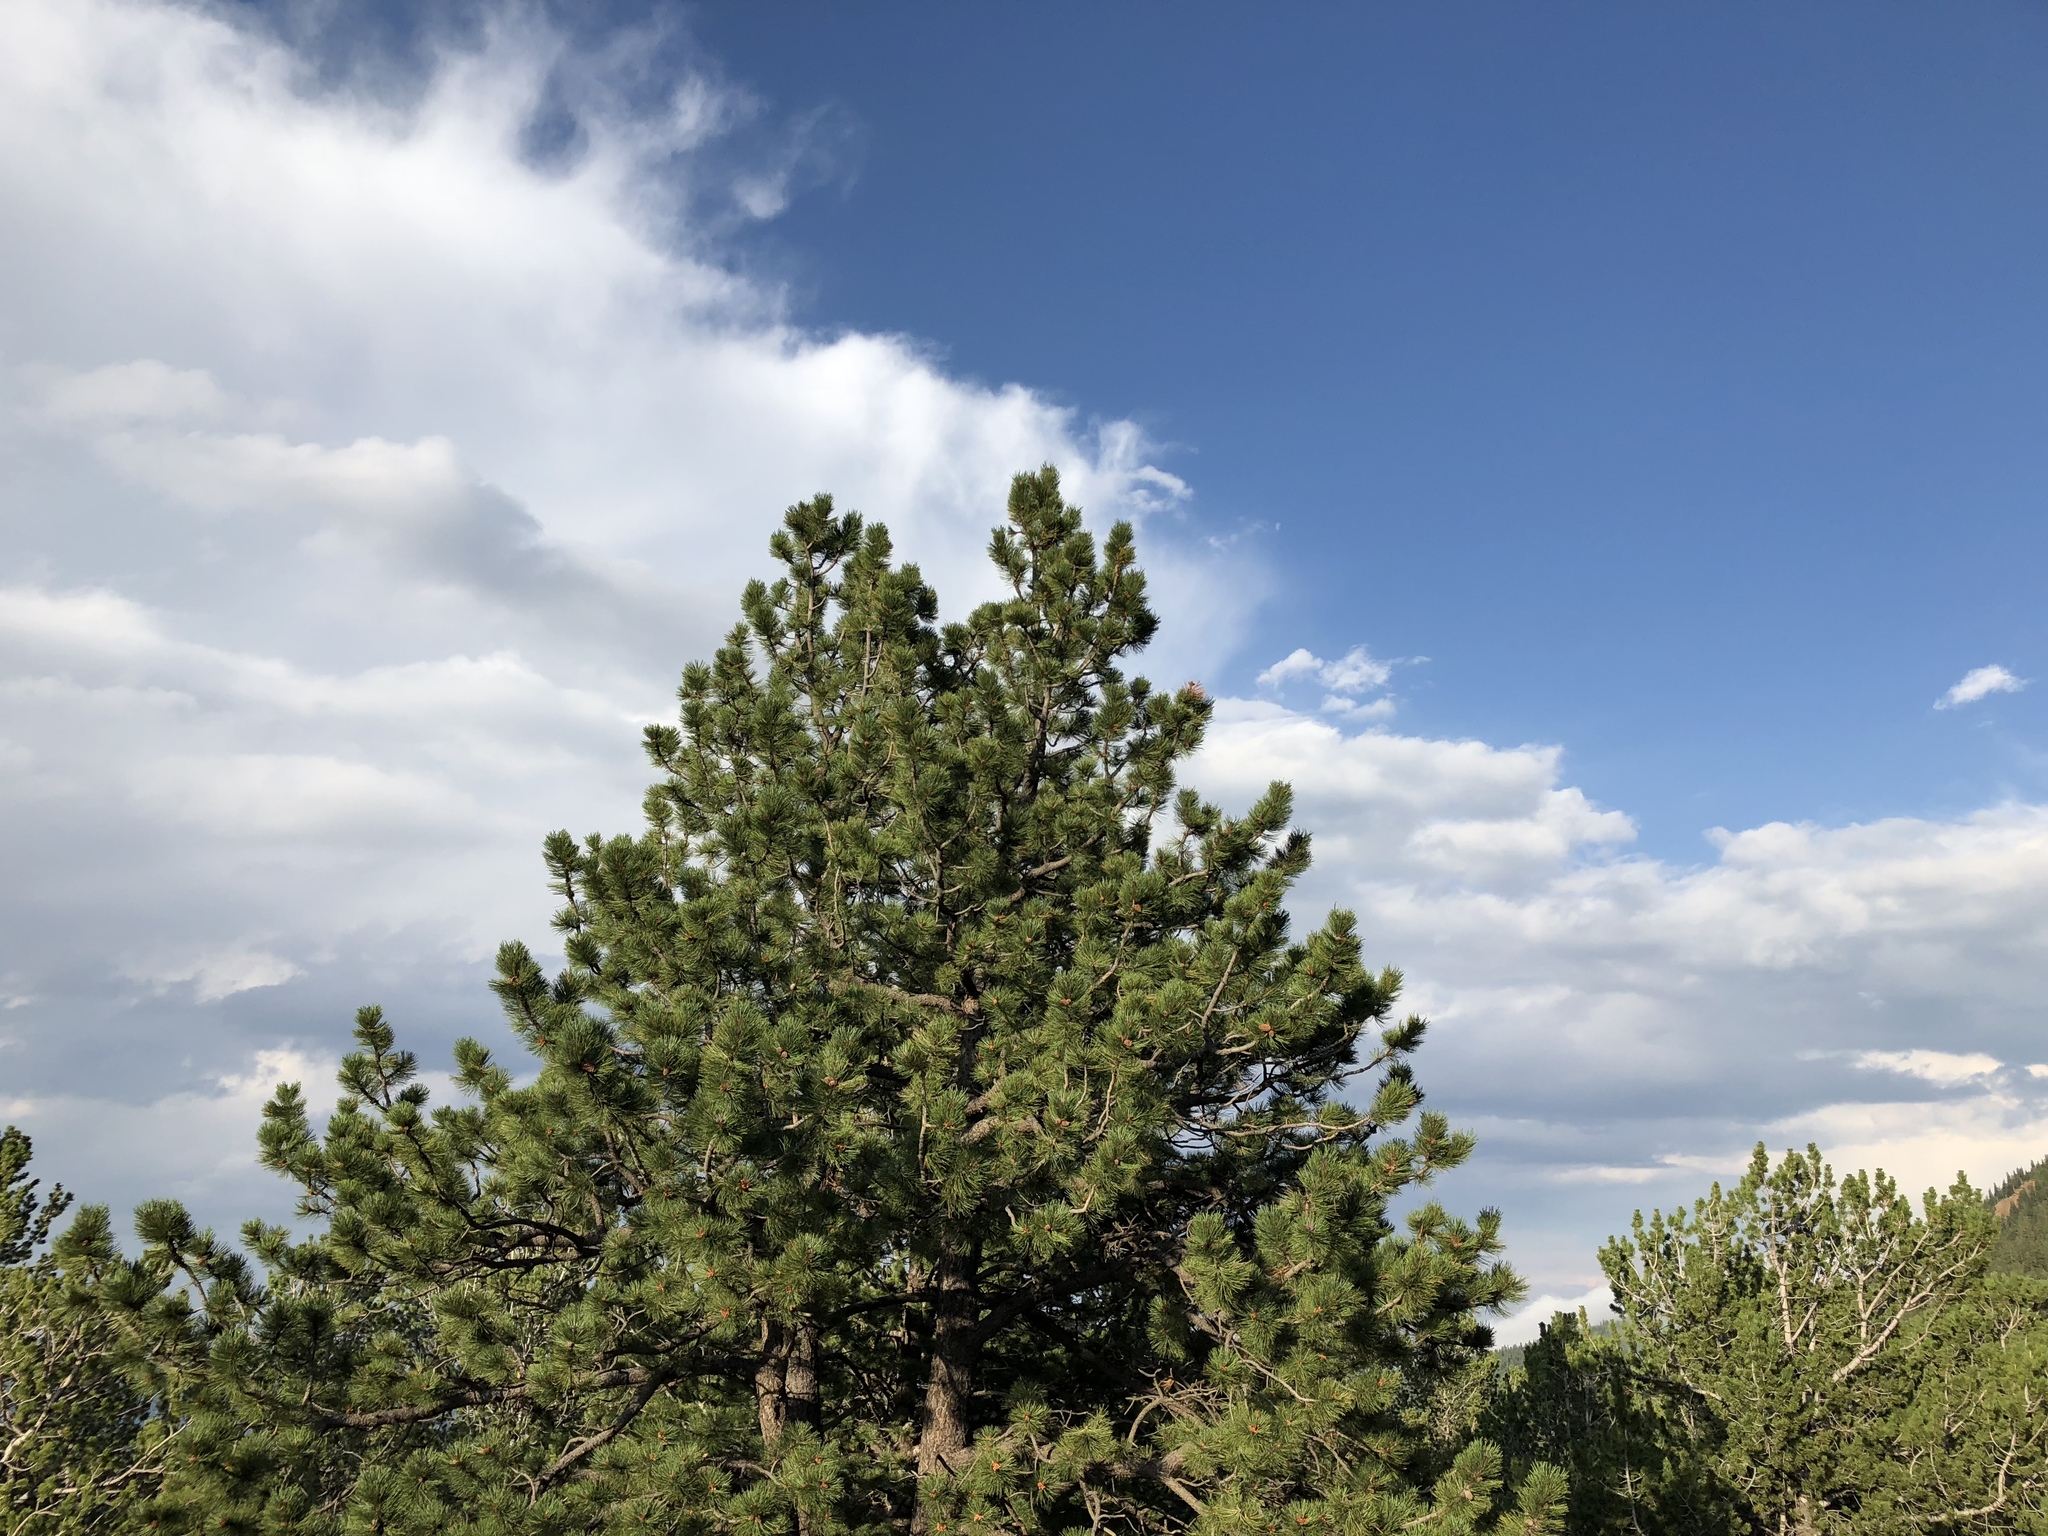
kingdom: Plantae
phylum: Tracheophyta
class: Pinopsida
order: Pinales
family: Pinaceae
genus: Pinus
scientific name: Pinus flexilis
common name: Limber pine
